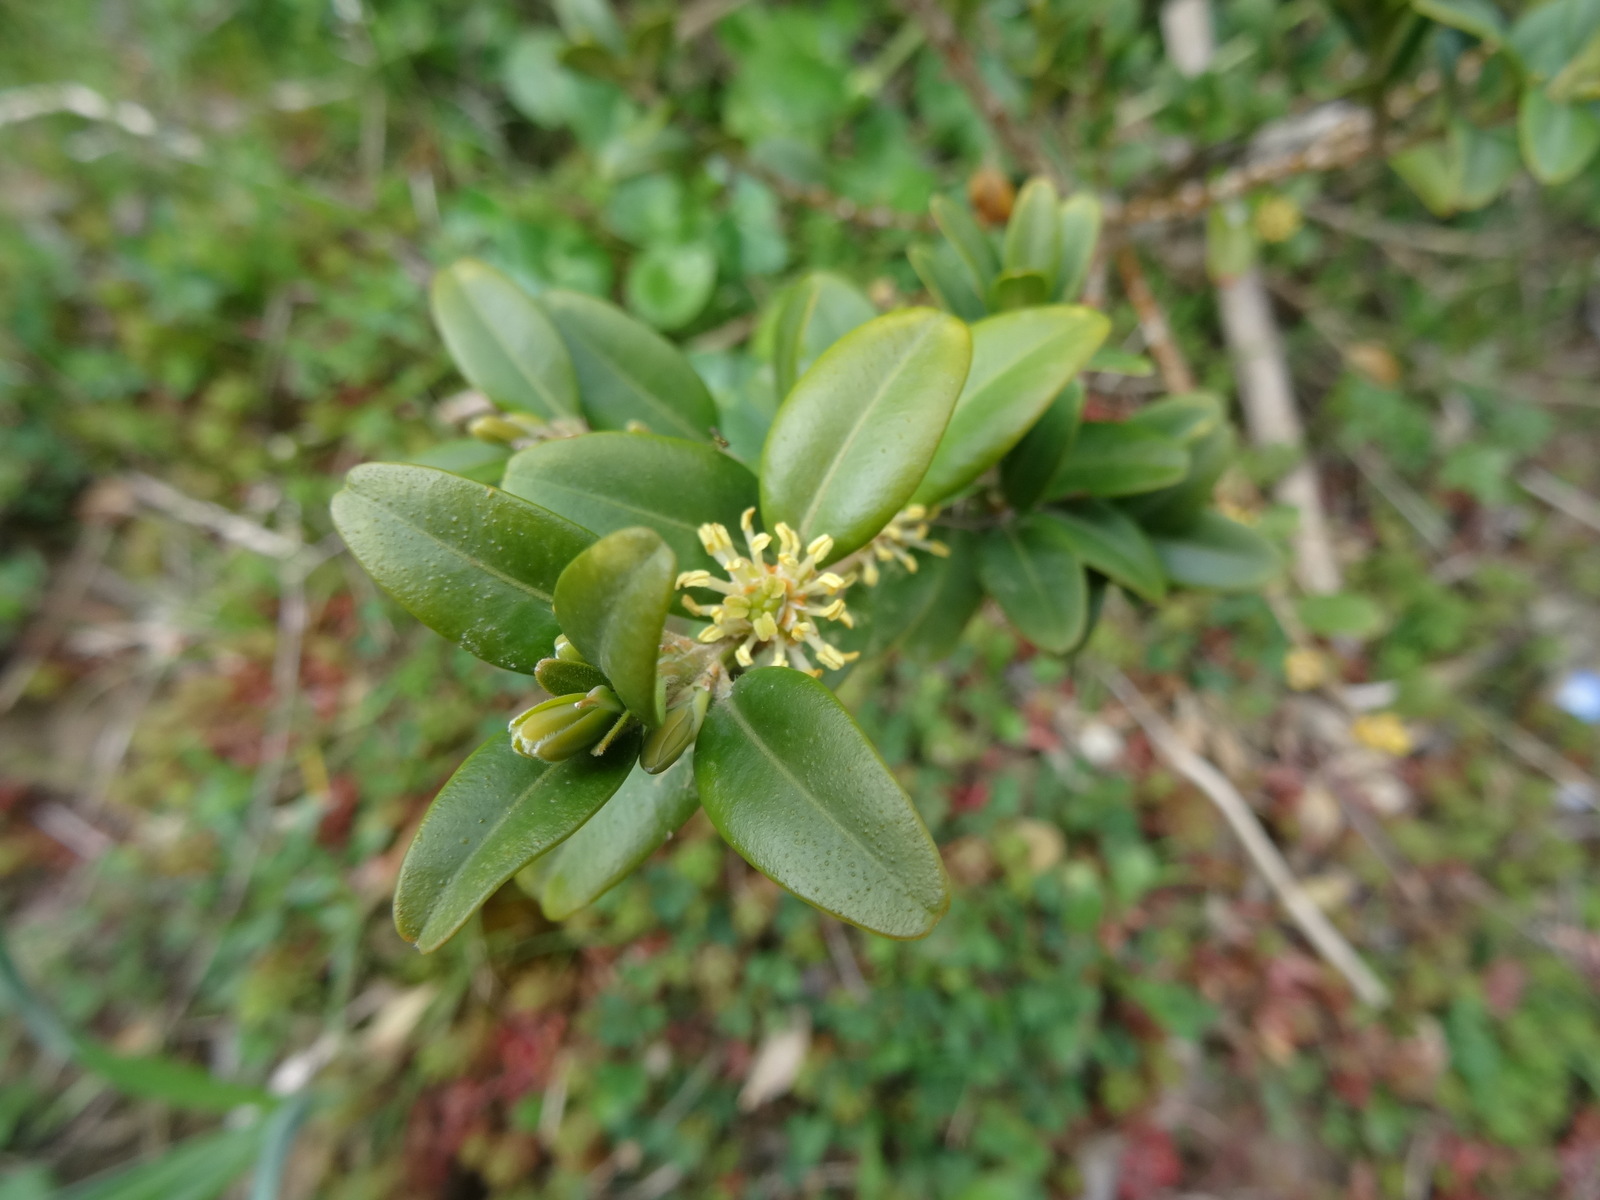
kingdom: Plantae
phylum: Tracheophyta
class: Magnoliopsida
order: Buxales
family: Buxaceae
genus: Buxus
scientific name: Buxus sempervirens
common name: Box
